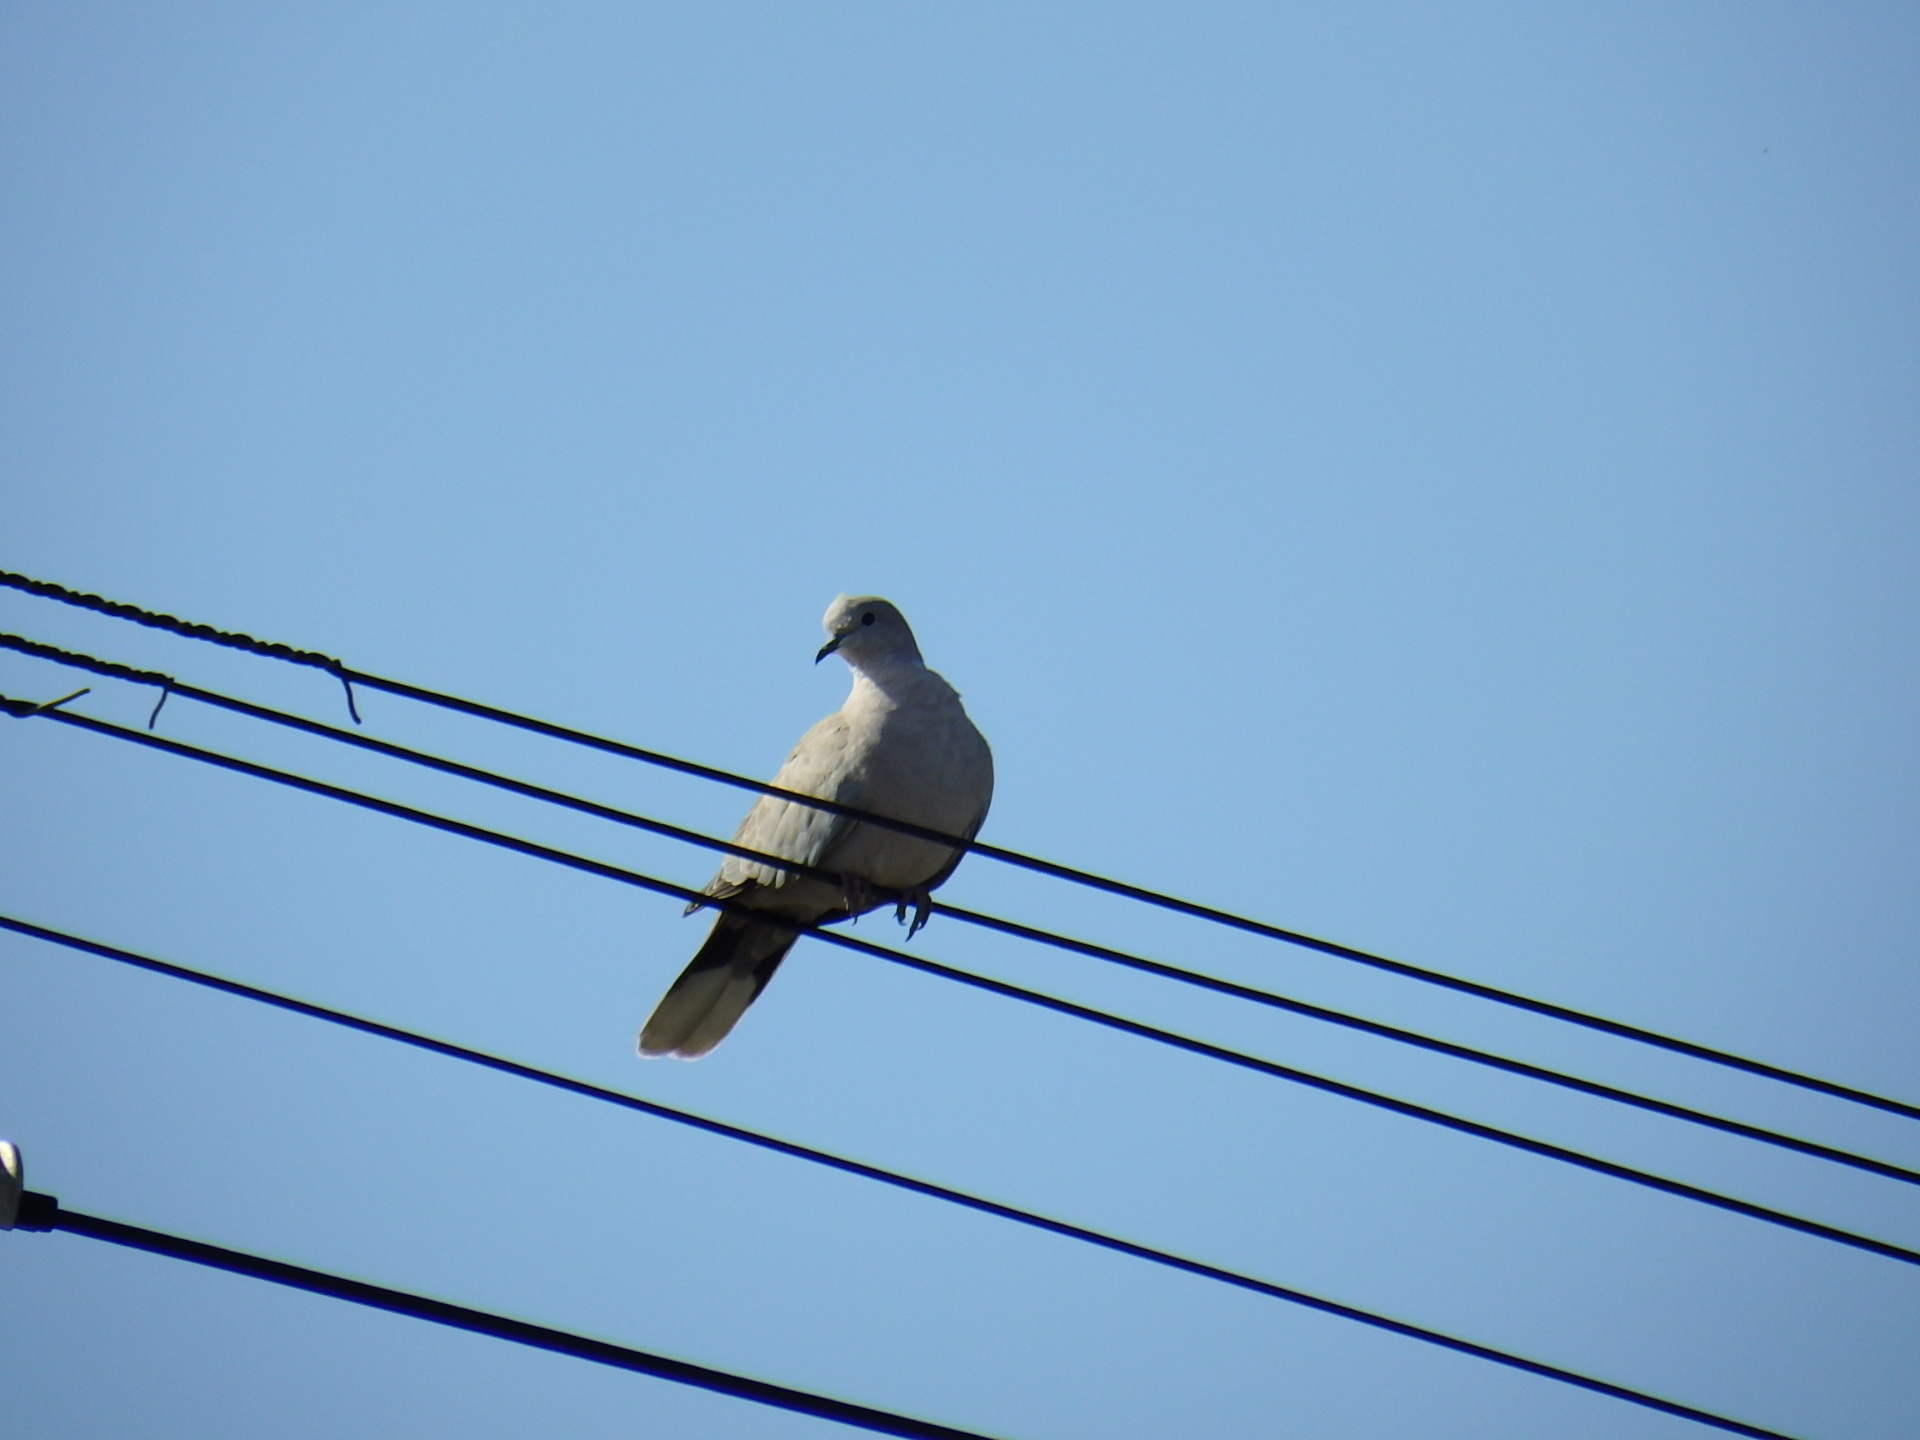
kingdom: Animalia
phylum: Chordata
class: Aves
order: Columbiformes
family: Columbidae
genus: Streptopelia
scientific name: Streptopelia decaocto
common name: Eurasian collared dove
